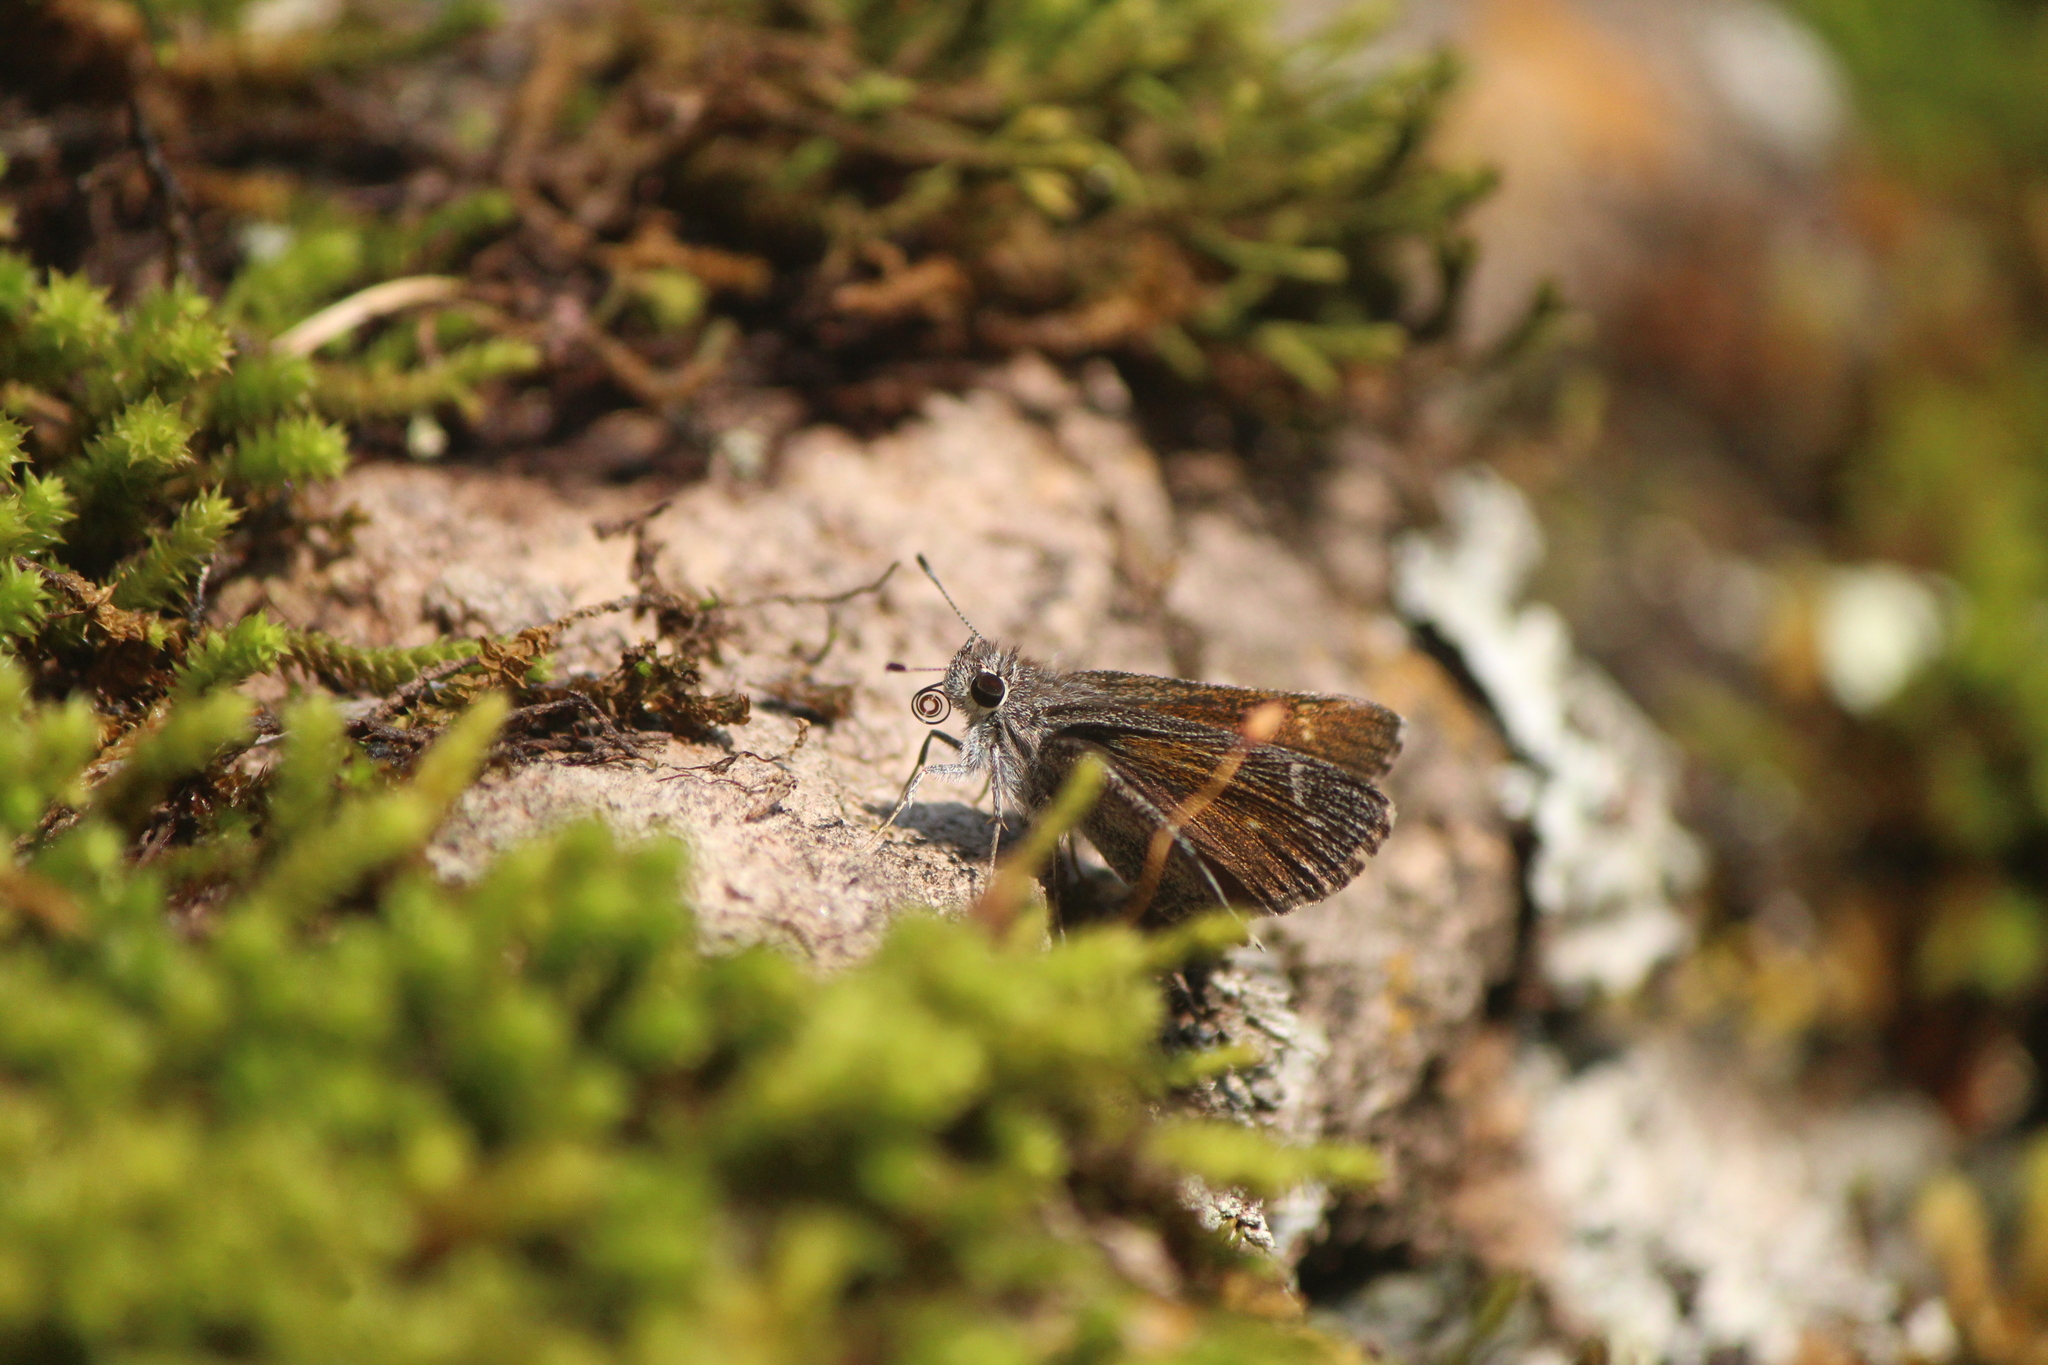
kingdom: Animalia
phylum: Arthropoda
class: Insecta
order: Lepidoptera
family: Hesperiidae
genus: Mastor
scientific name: Mastor aenus
